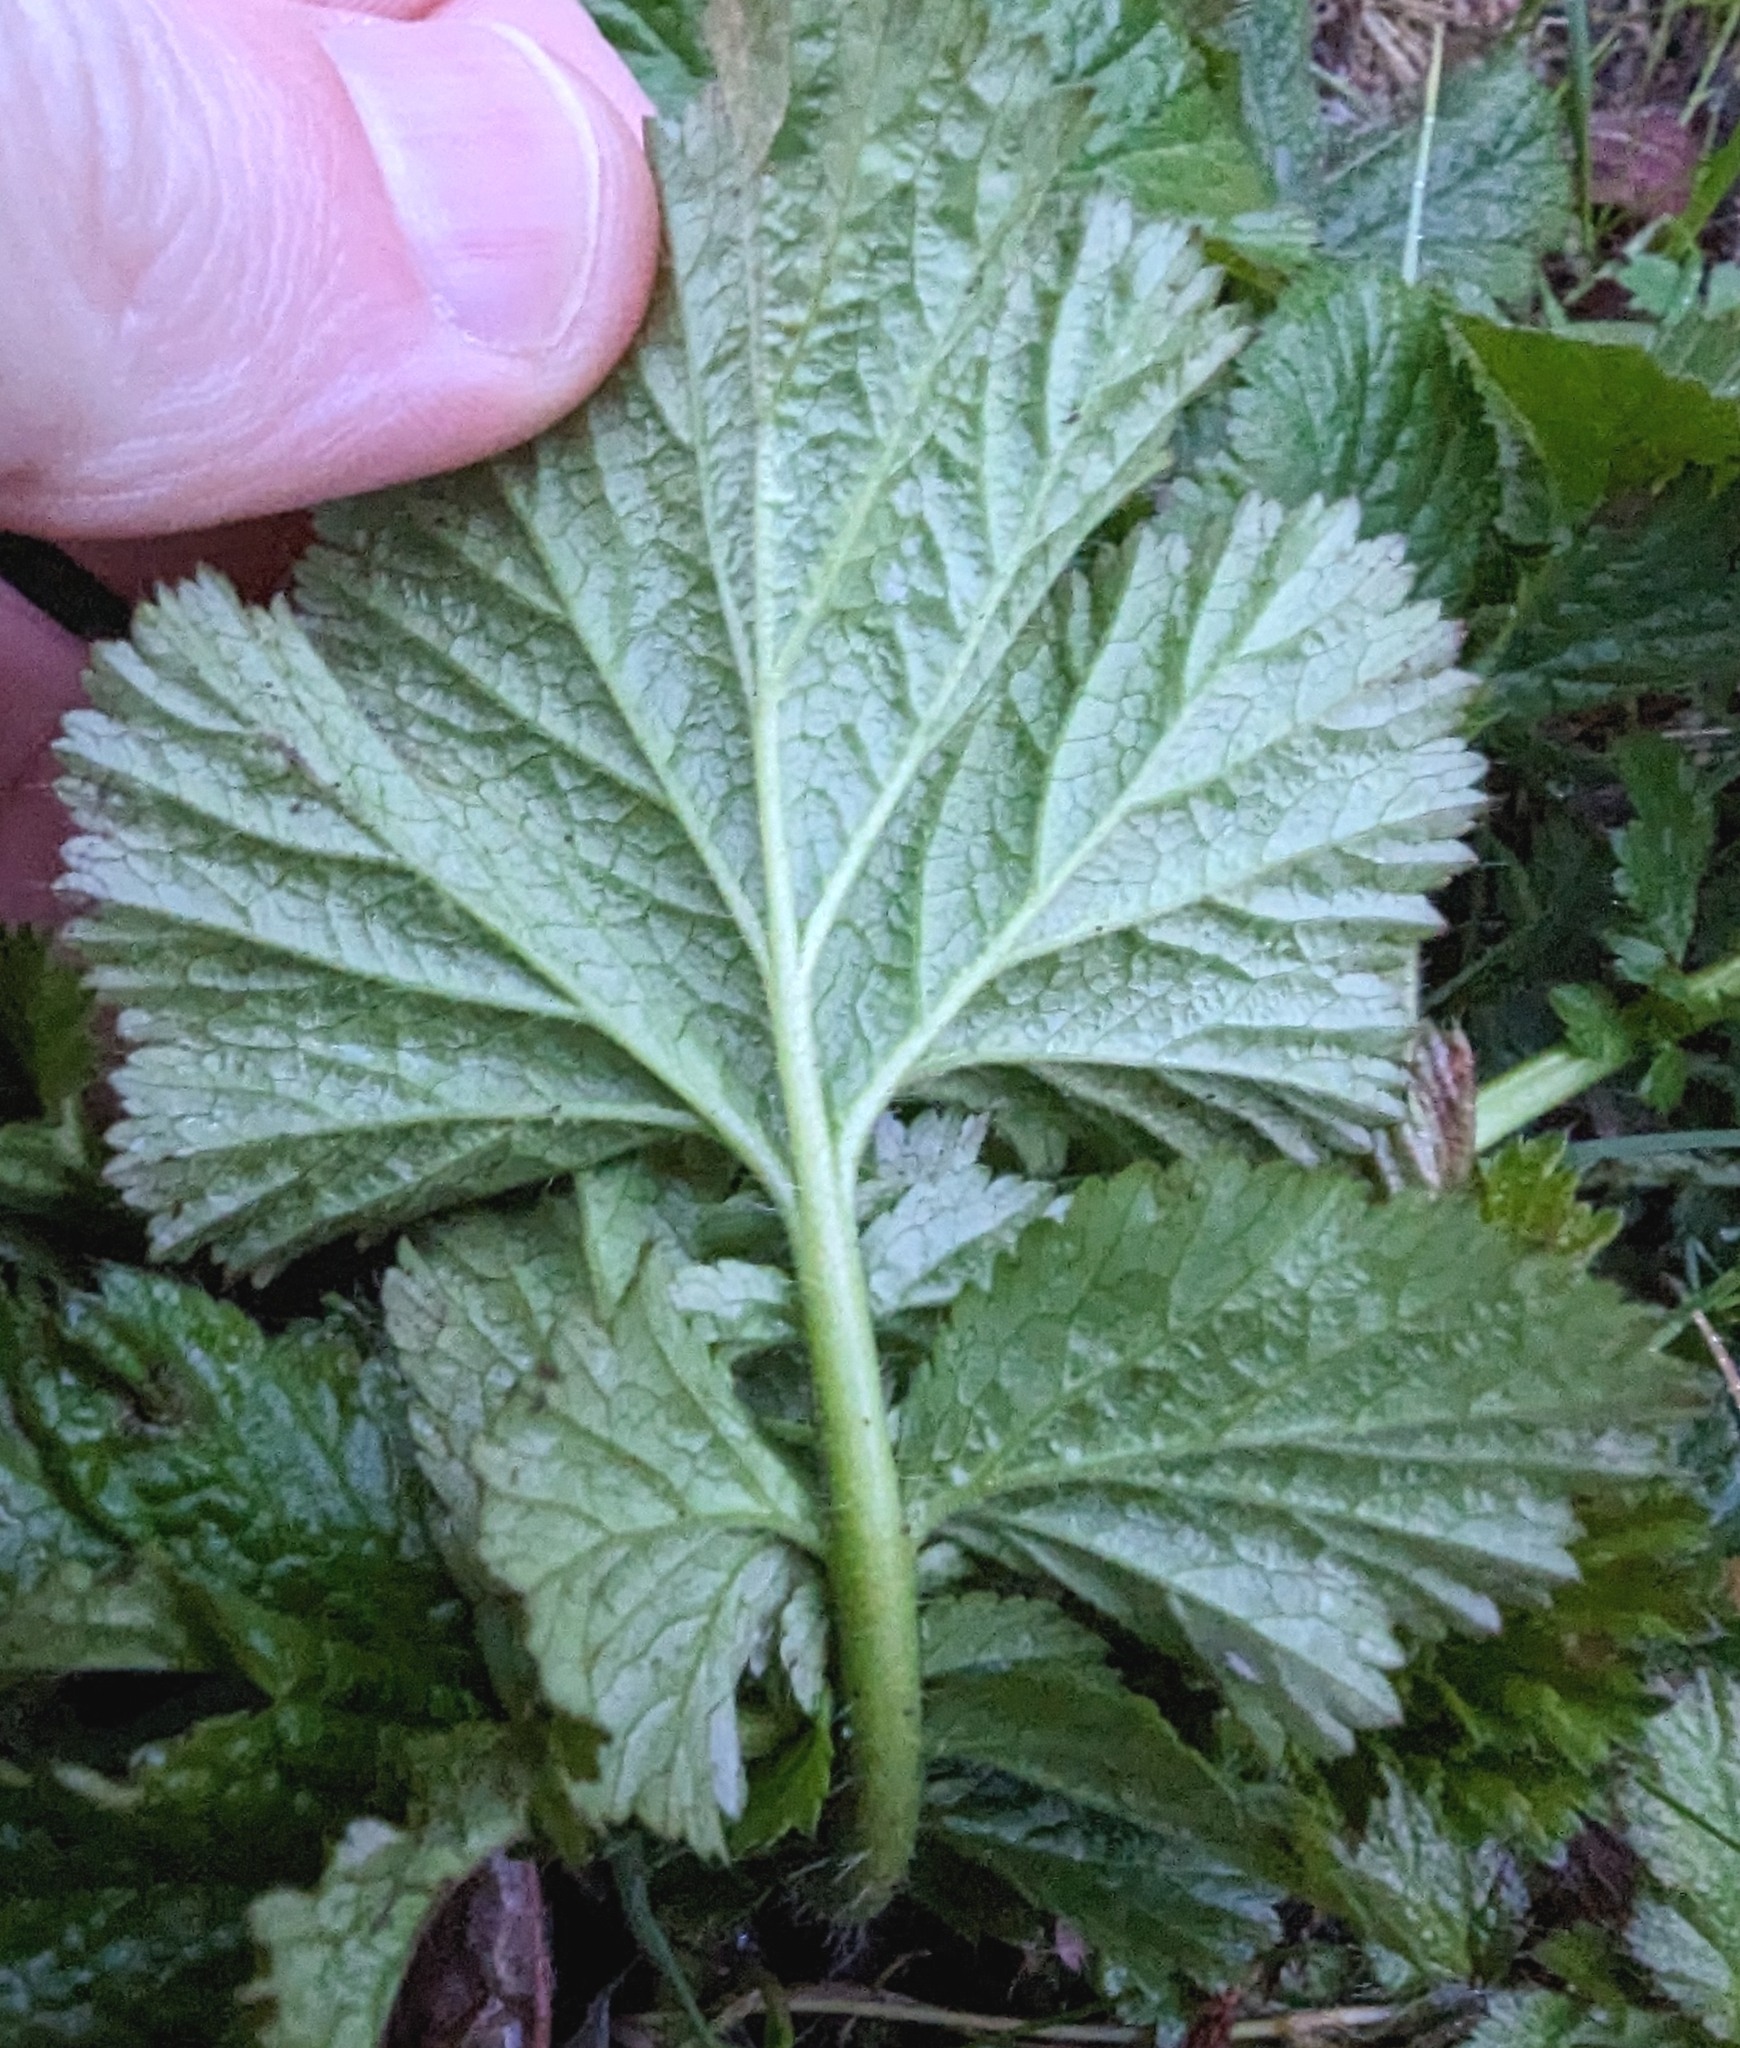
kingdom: Plantae
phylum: Tracheophyta
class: Magnoliopsida
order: Rosales
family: Rosaceae
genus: Geum
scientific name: Geum macrophyllum
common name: Large-leaved avens
